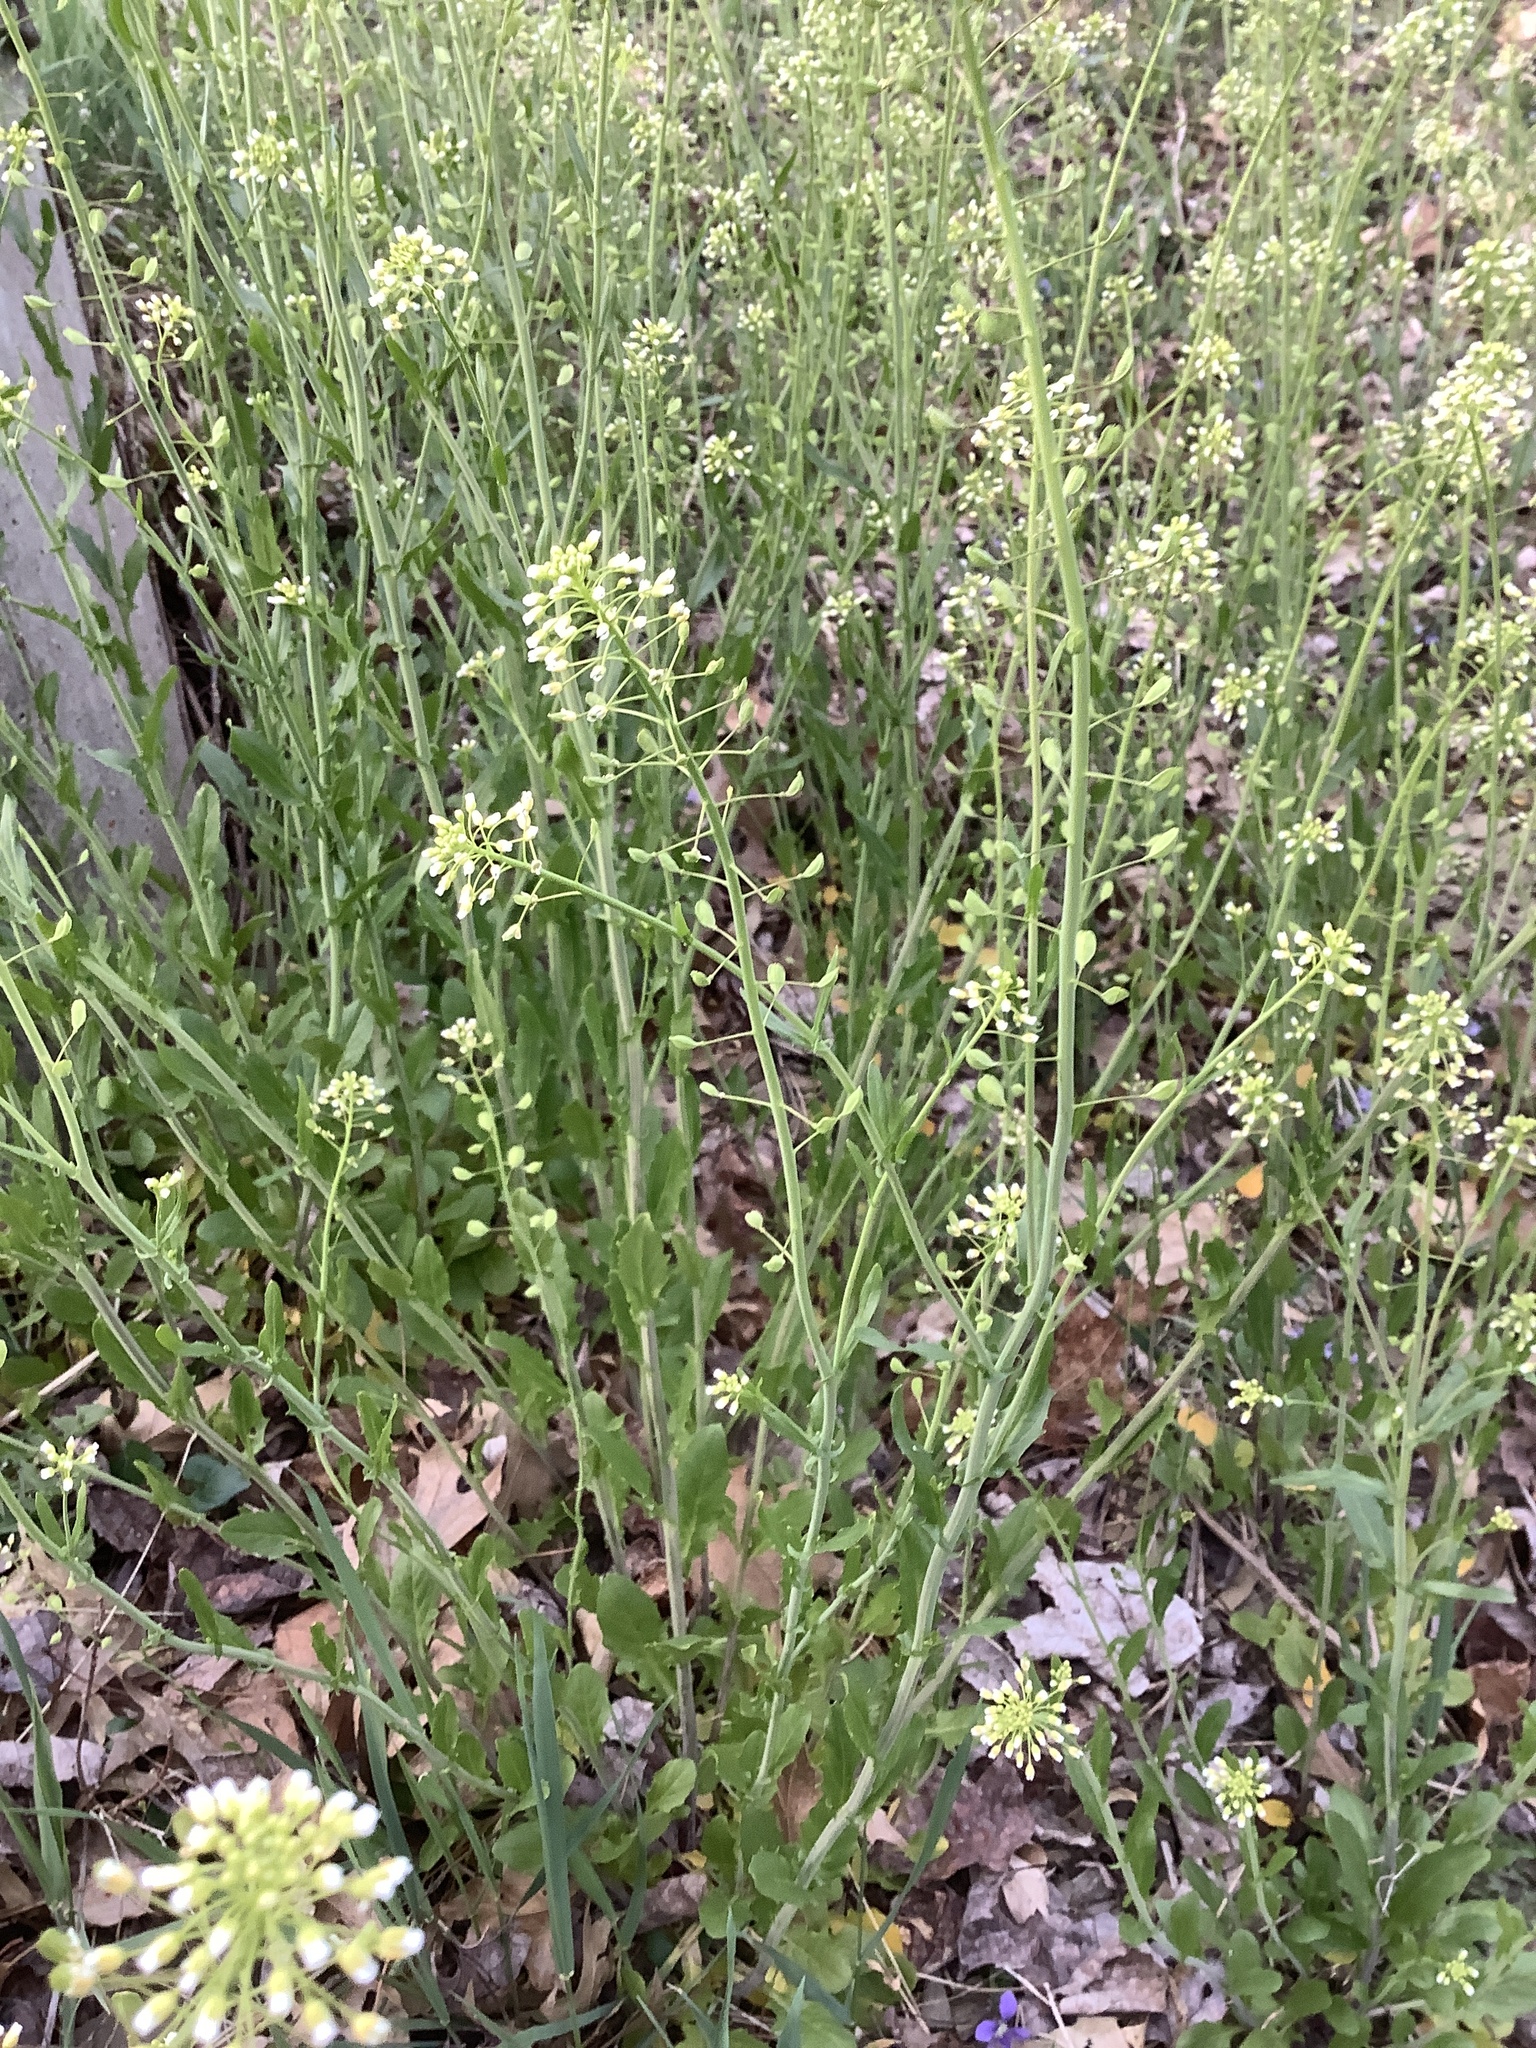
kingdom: Plantae
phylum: Tracheophyta
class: Magnoliopsida
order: Brassicales
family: Brassicaceae
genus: Mummenhoffia
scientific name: Mummenhoffia alliacea
